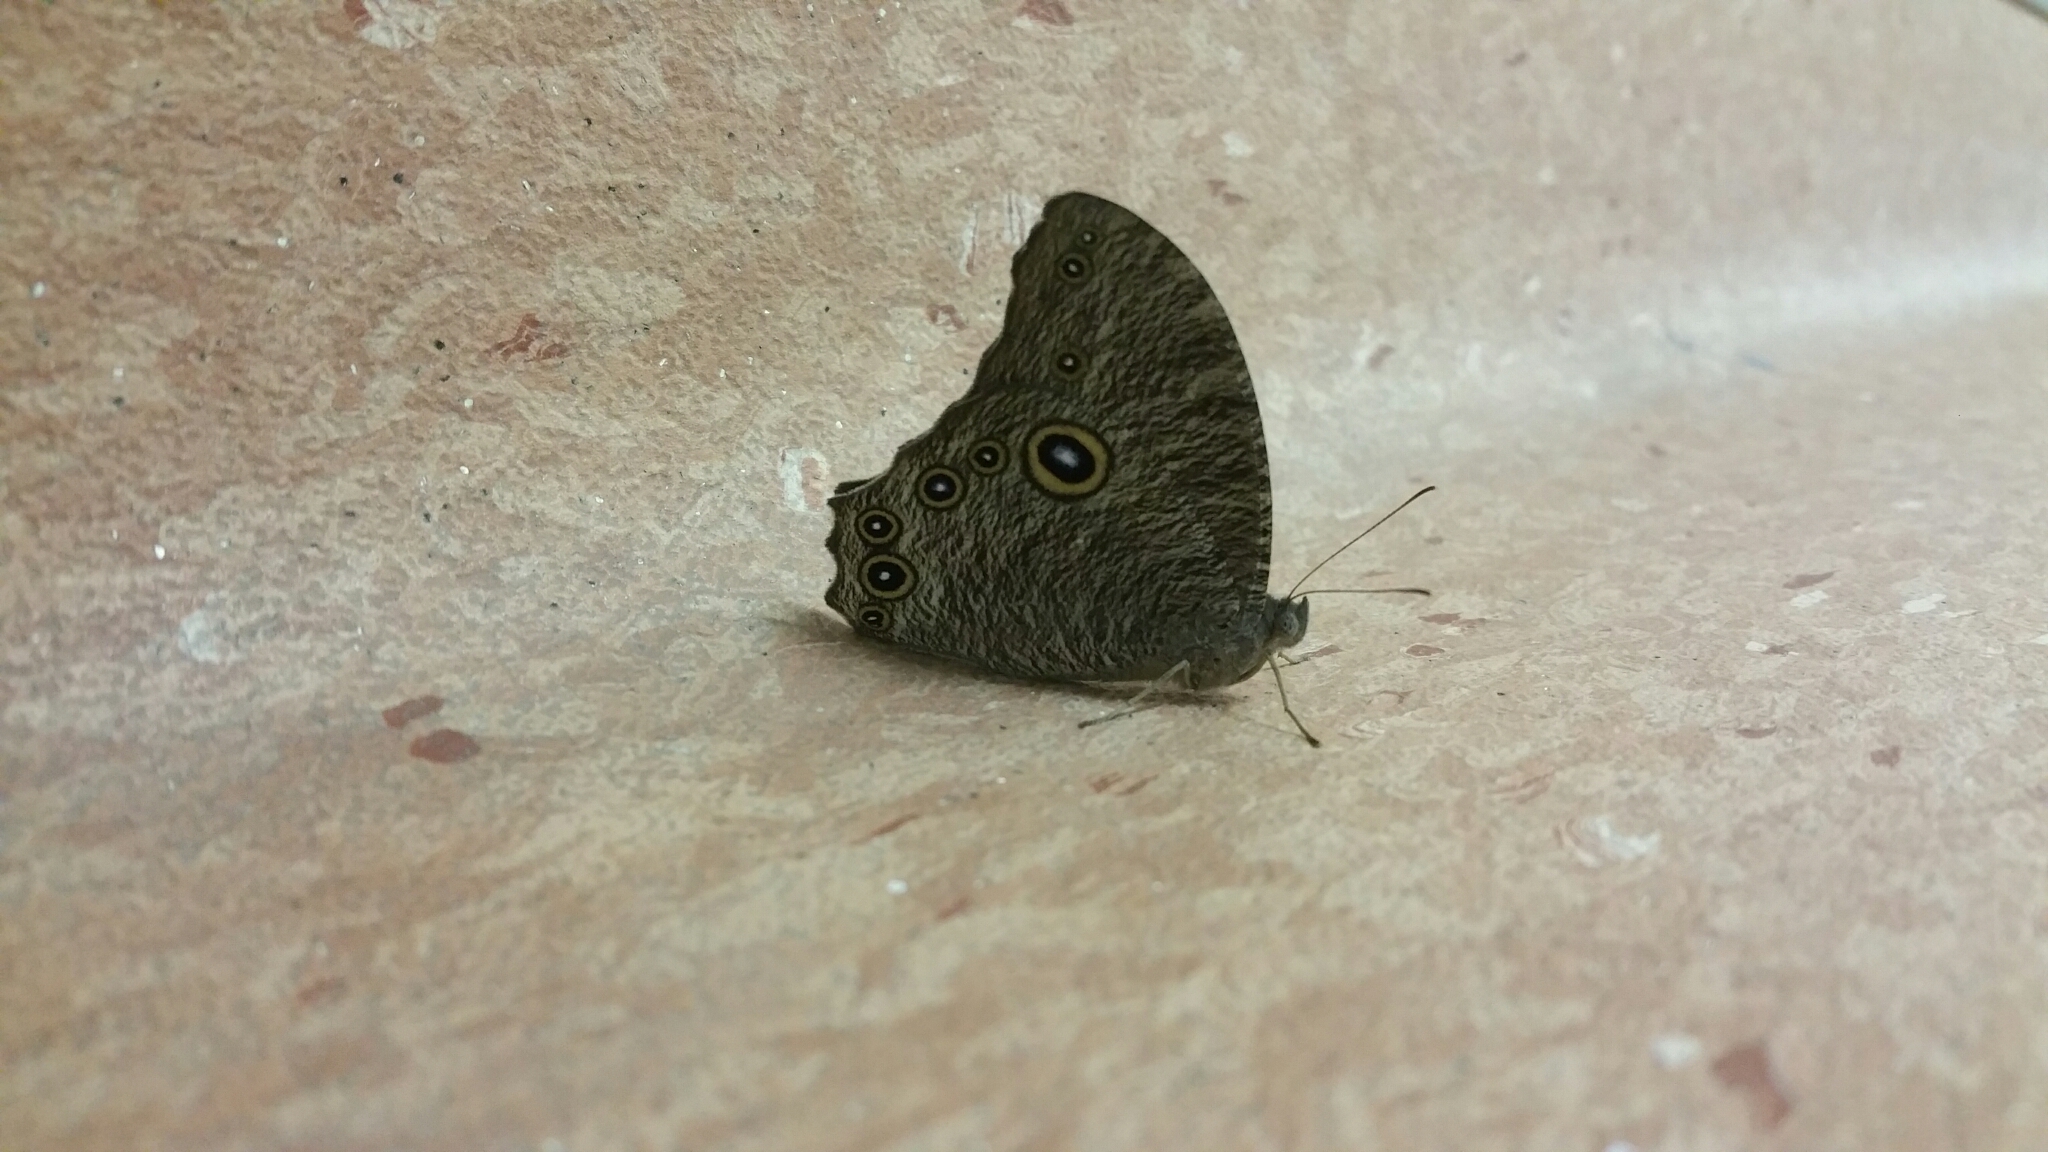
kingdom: Animalia
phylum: Arthropoda
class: Insecta
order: Lepidoptera
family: Nymphalidae
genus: Melanitis
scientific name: Melanitis leda
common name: Twilight brown
